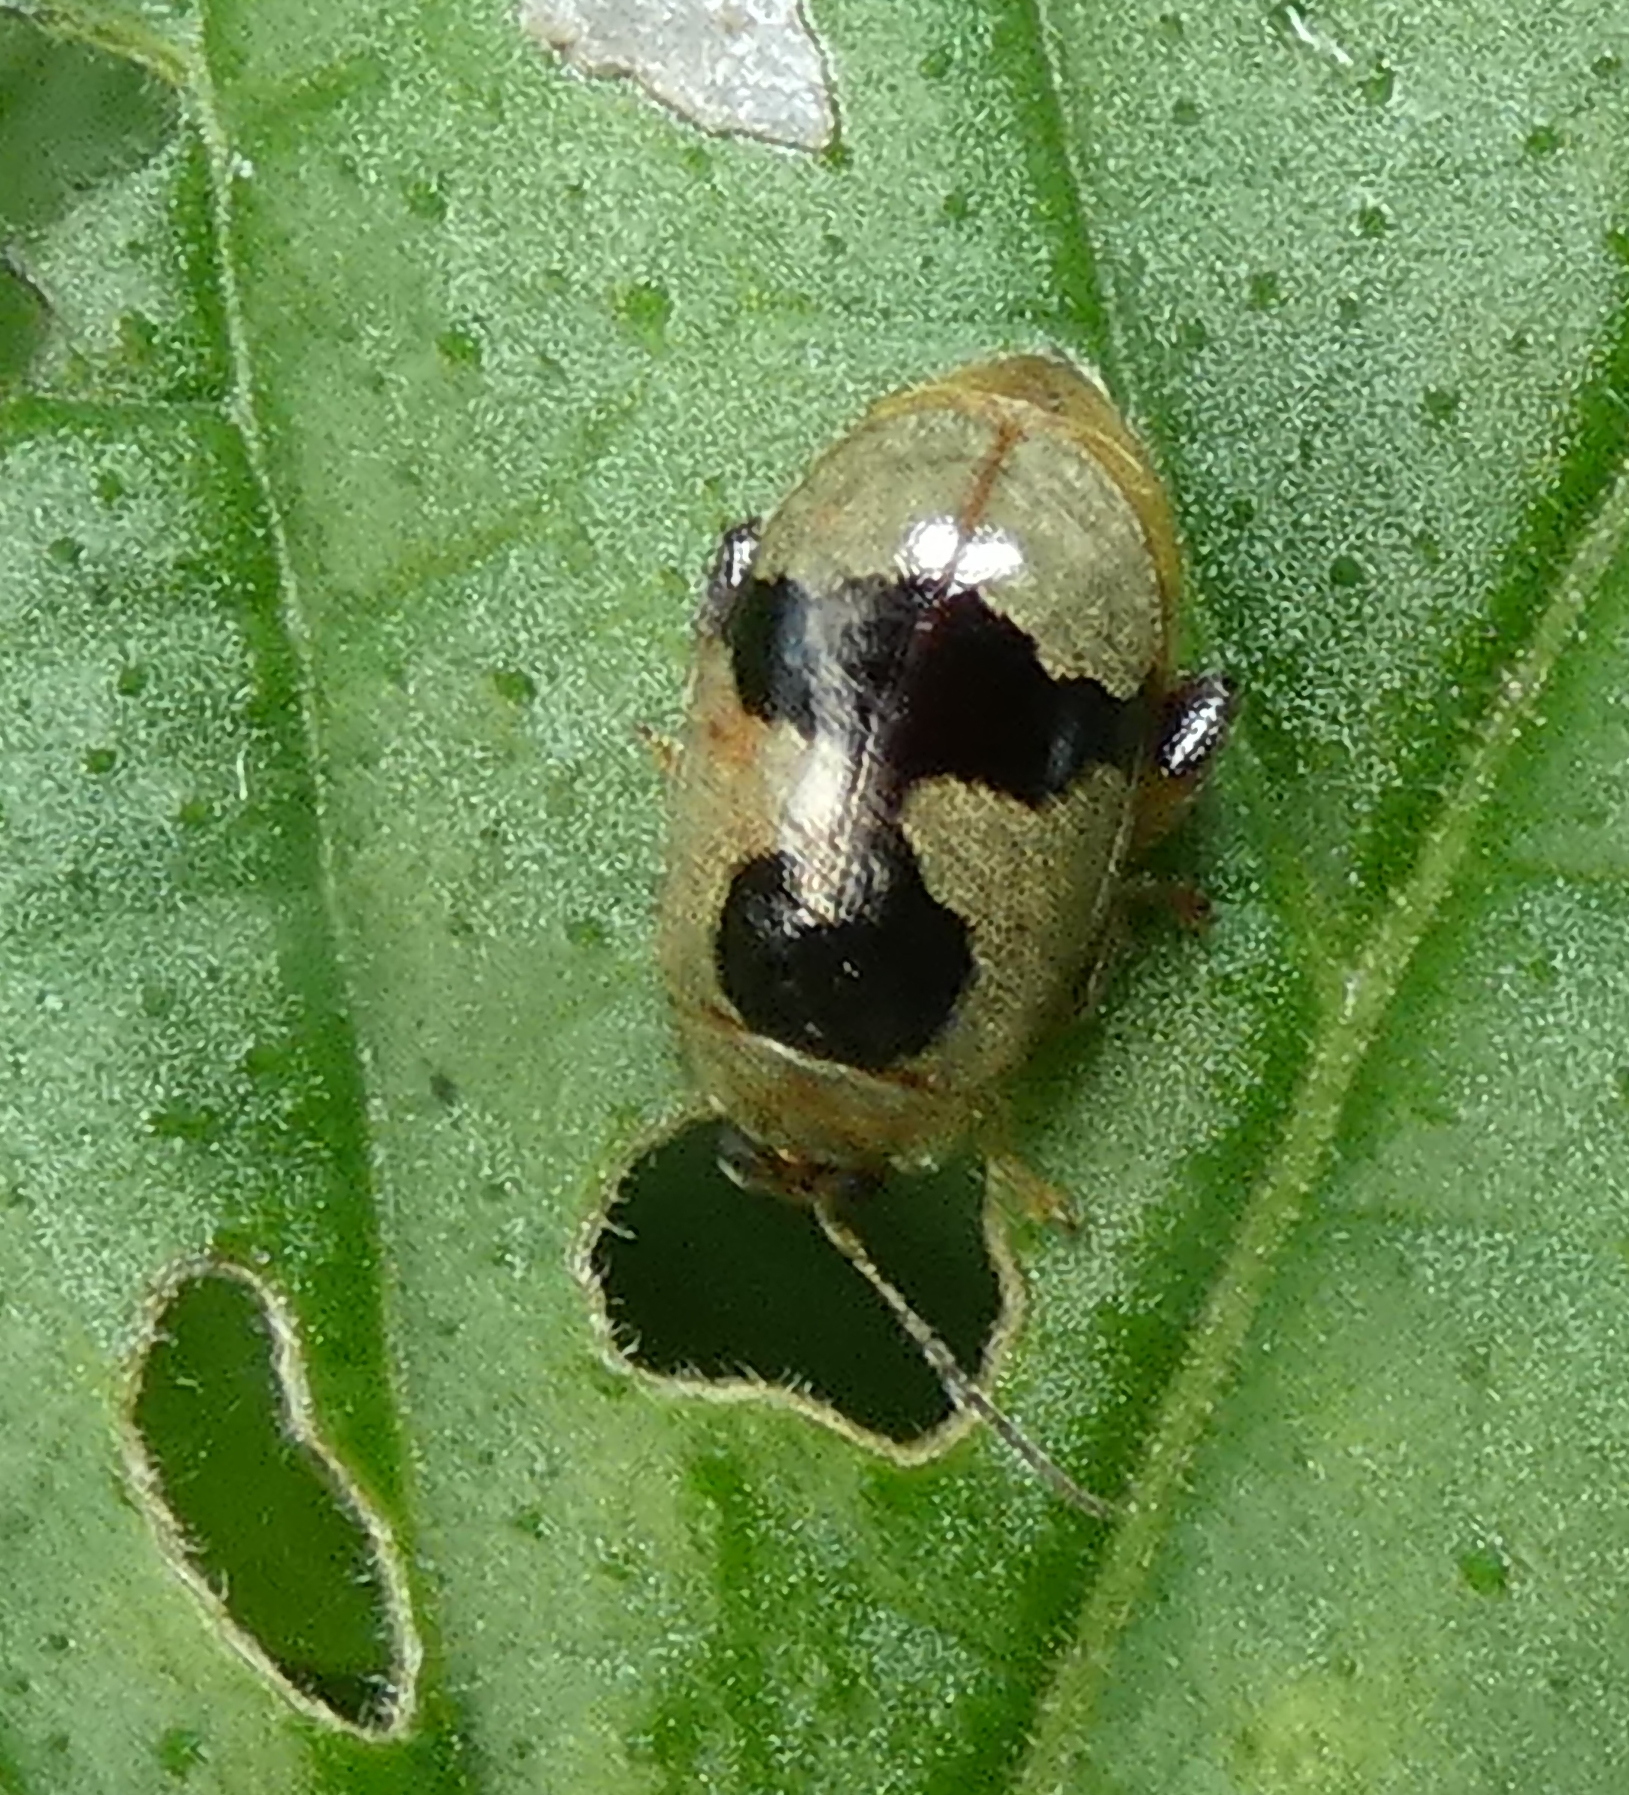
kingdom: Animalia
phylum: Arthropoda
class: Insecta
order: Coleoptera
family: Chrysomelidae
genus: Alagoasa
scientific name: Alagoasa
